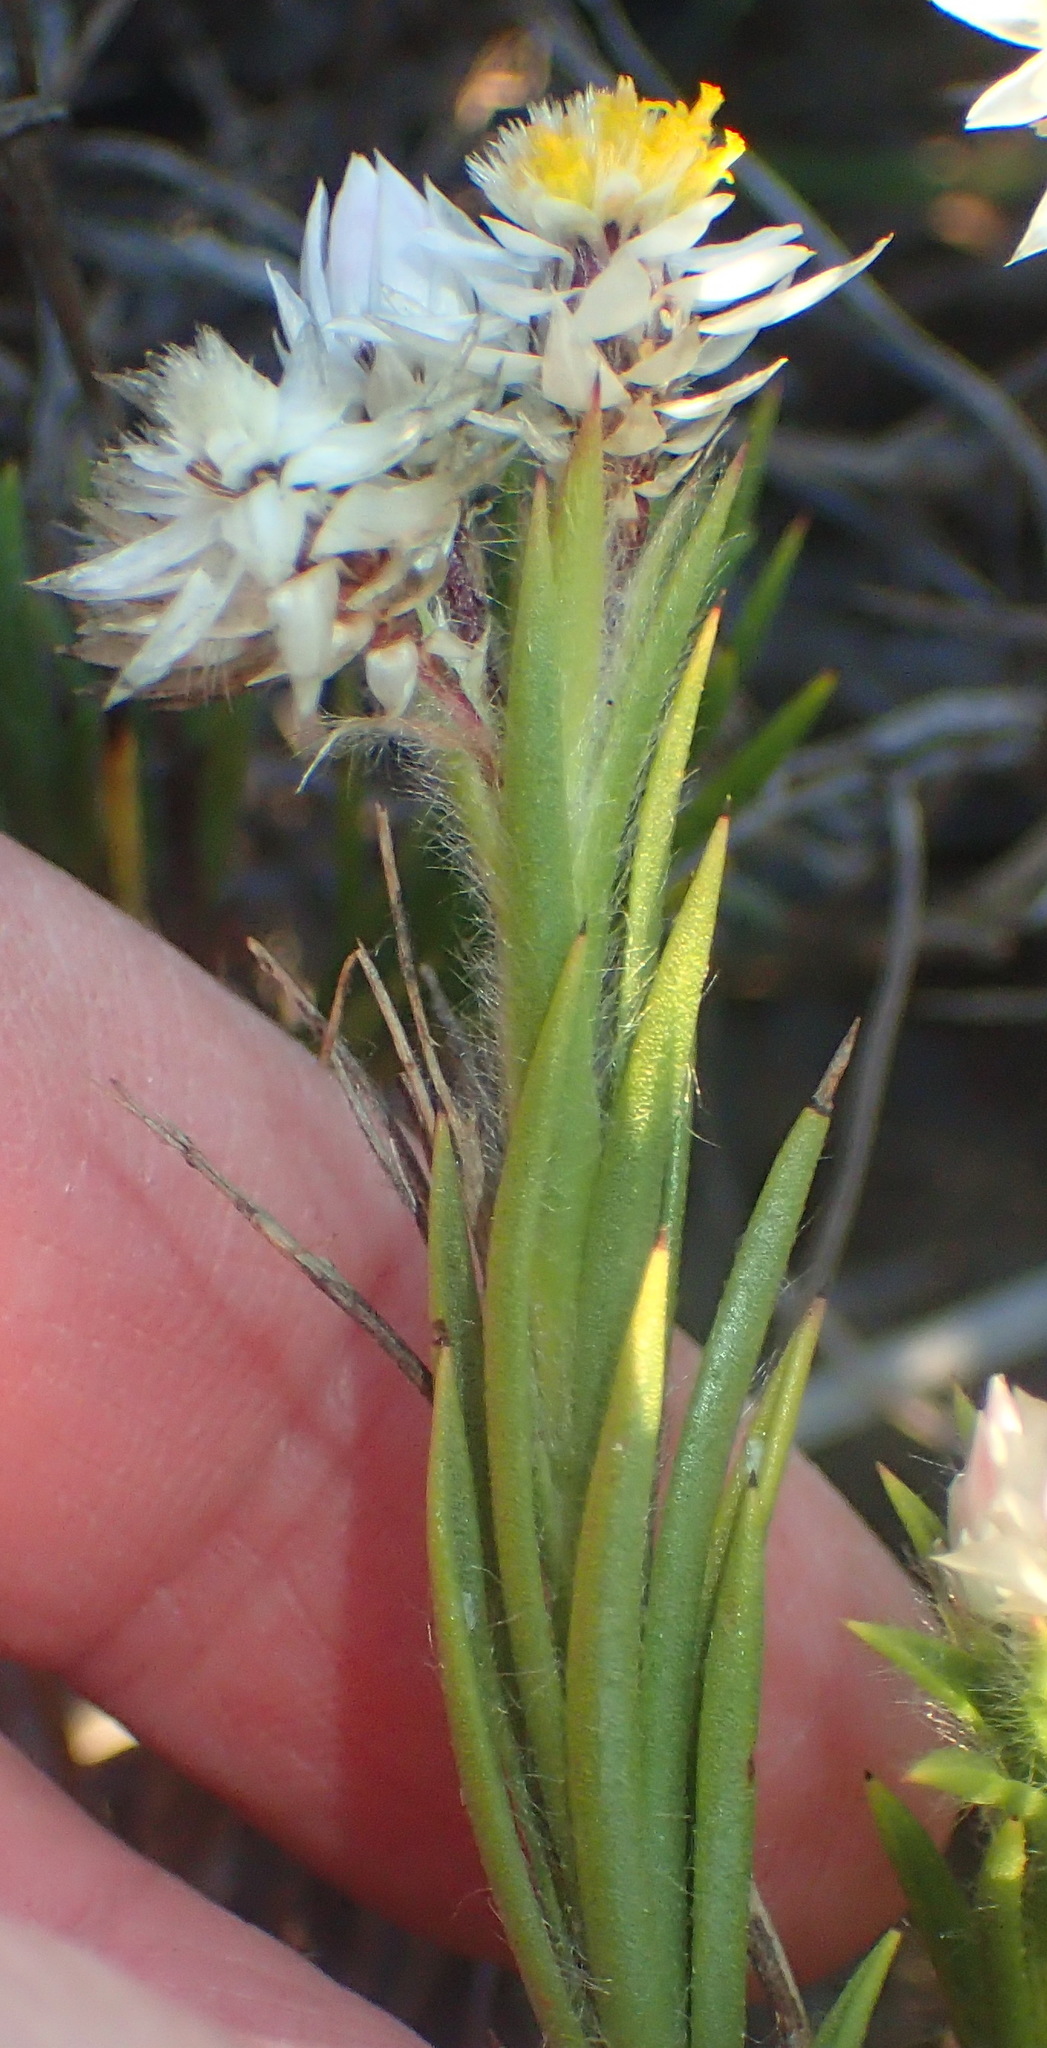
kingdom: Plantae
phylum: Tracheophyta
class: Magnoliopsida
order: Asterales
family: Asteraceae
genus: Achyranthemum
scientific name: Achyranthemum striatum
